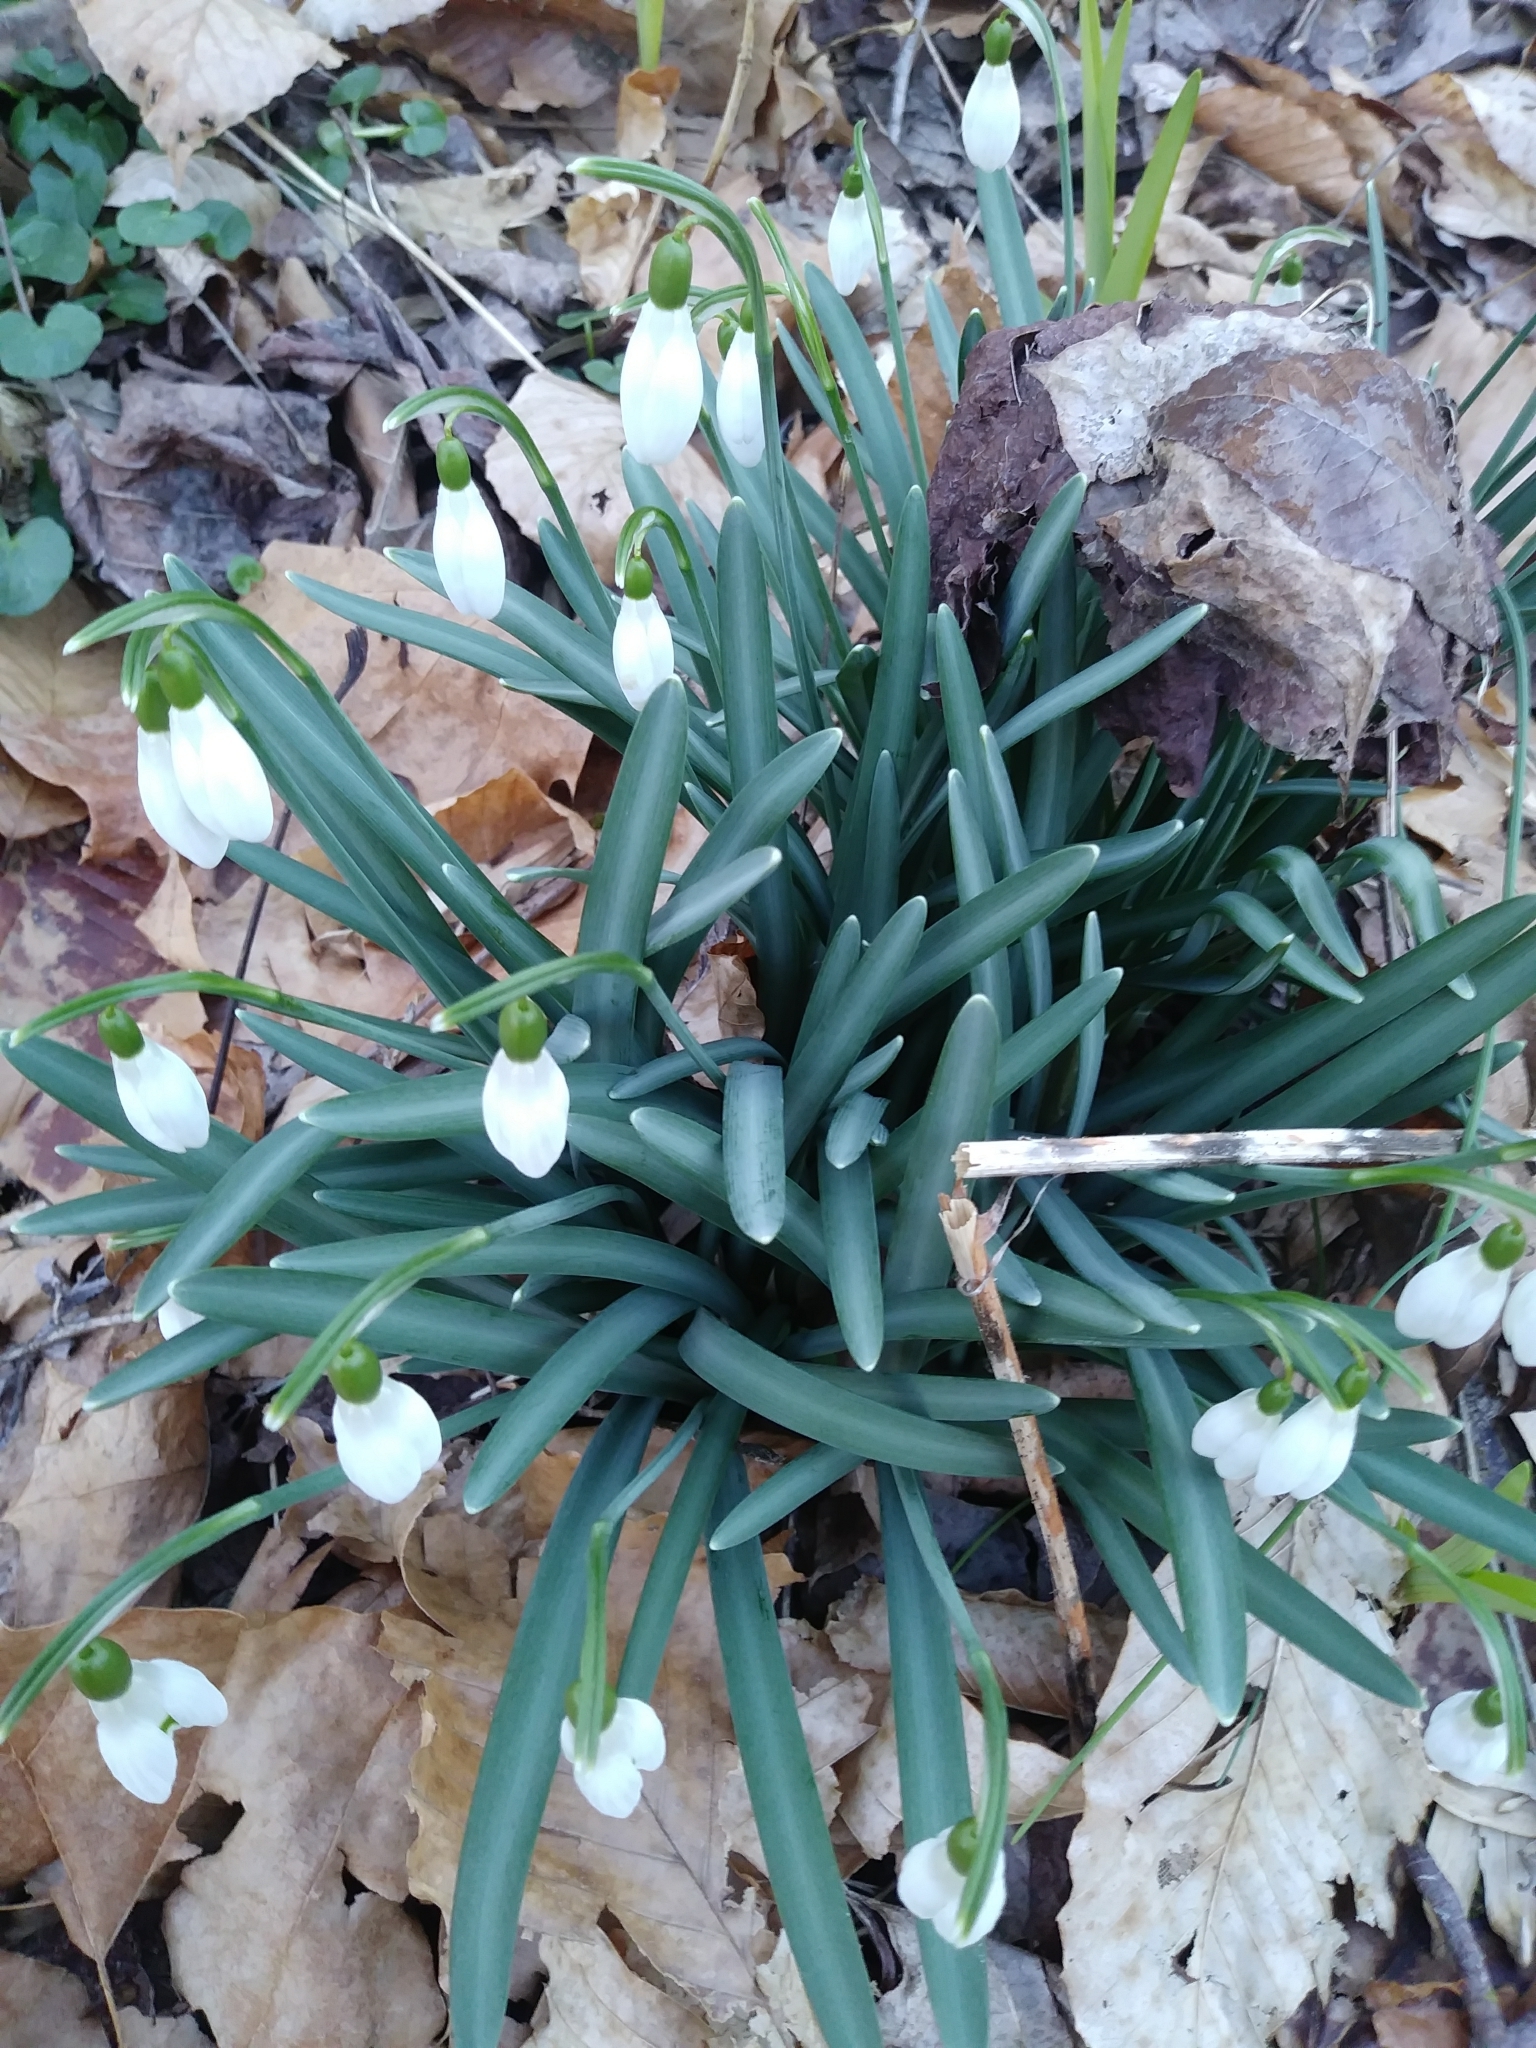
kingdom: Plantae
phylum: Tracheophyta
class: Liliopsida
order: Asparagales
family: Amaryllidaceae
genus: Galanthus
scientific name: Galanthus nivalis
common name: Snowdrop
